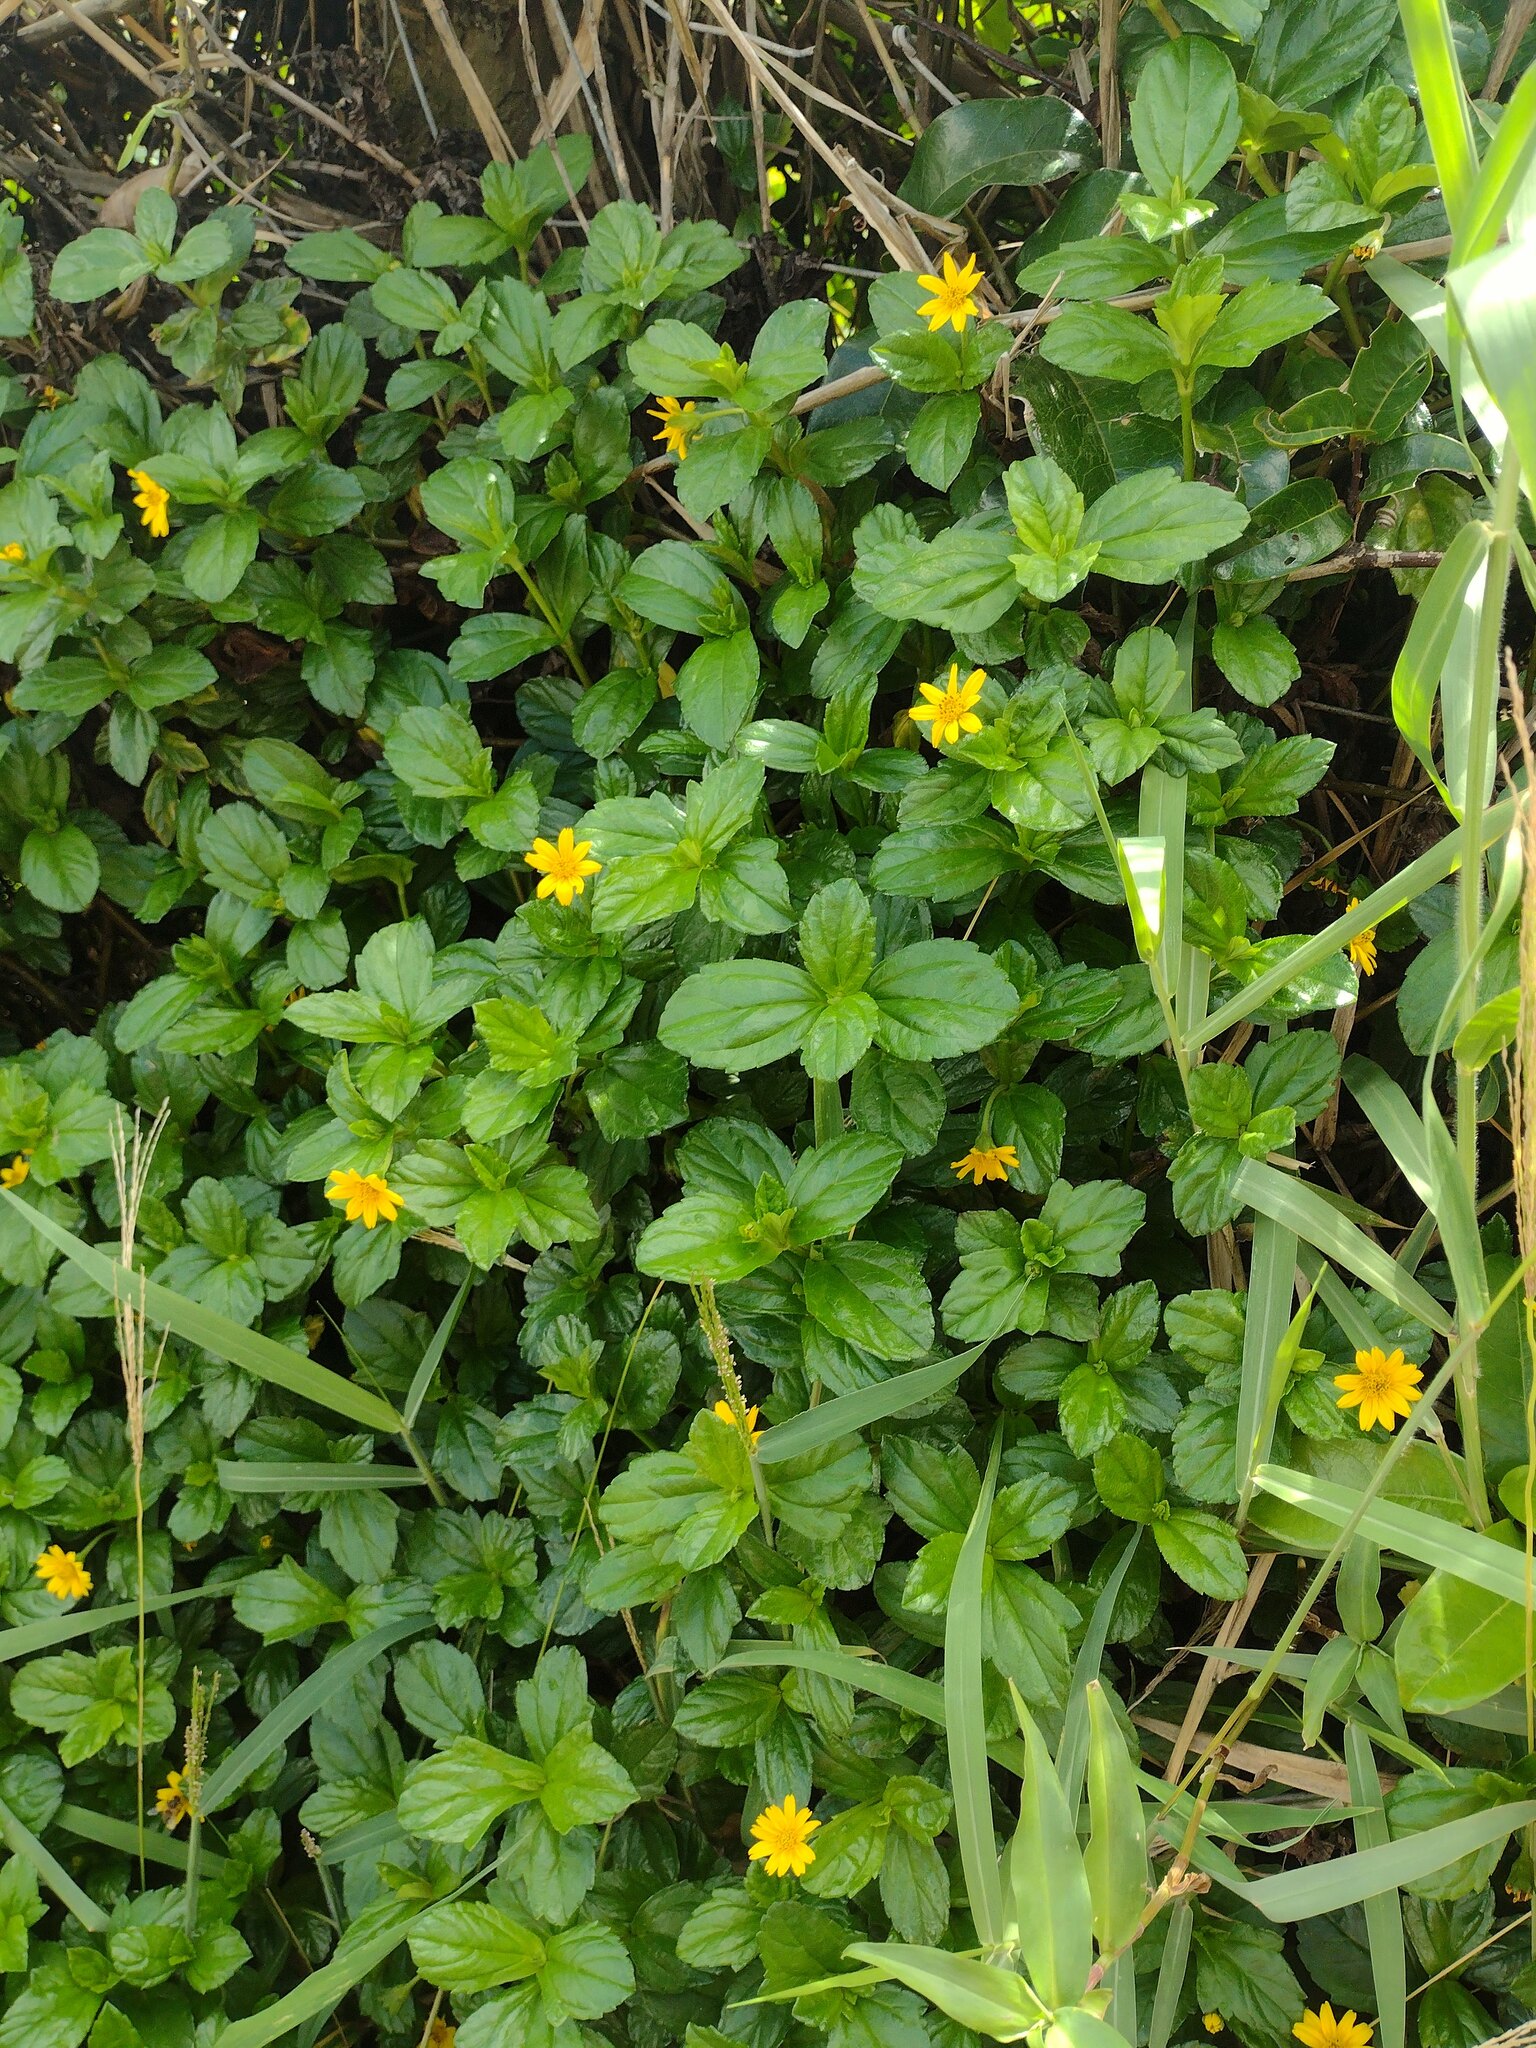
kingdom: Plantae
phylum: Tracheophyta
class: Magnoliopsida
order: Asterales
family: Asteraceae
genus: Sphagneticola
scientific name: Sphagneticola trilobata
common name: Bay biscayne creeping-oxeye
